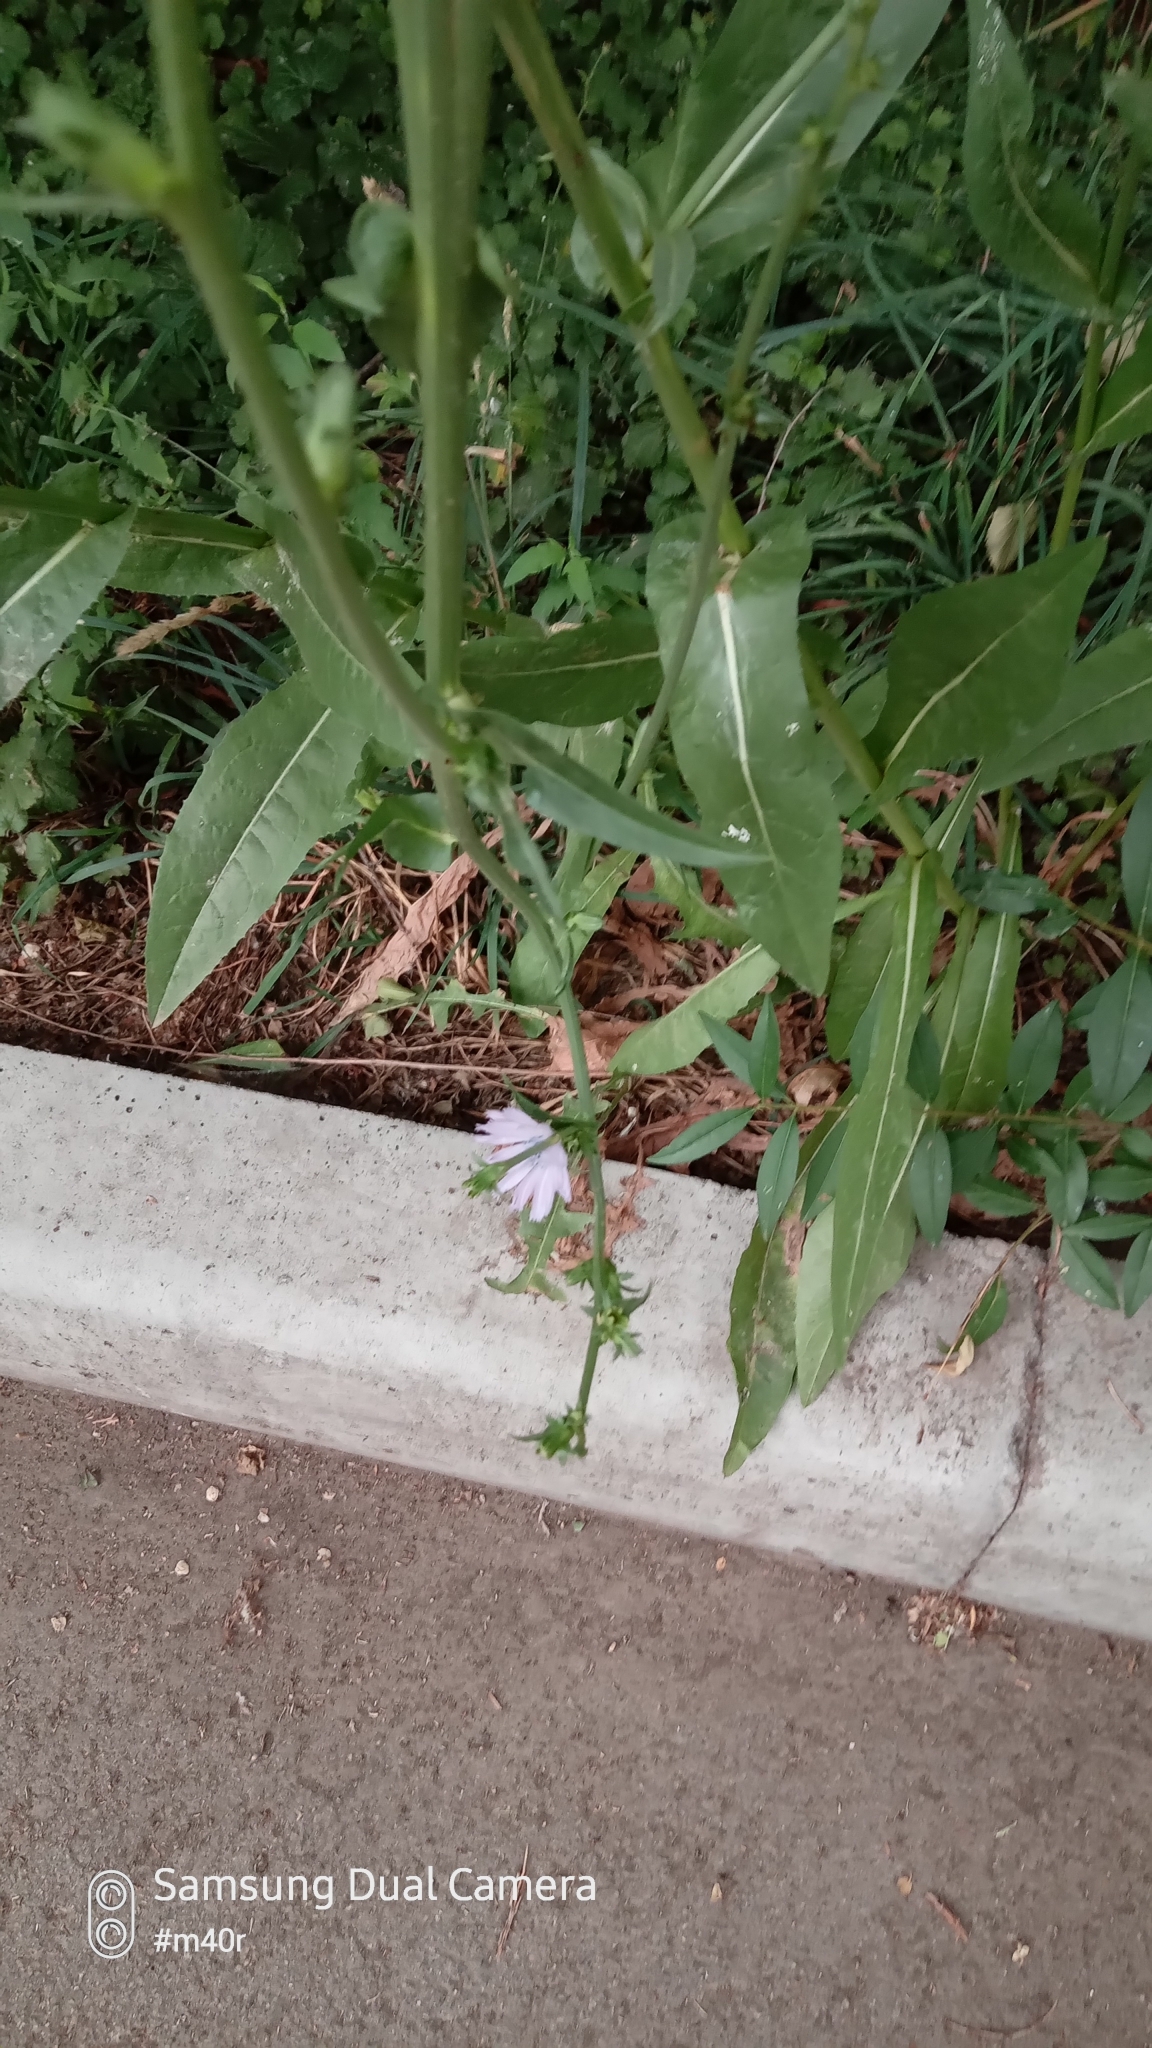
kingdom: Plantae
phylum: Tracheophyta
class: Magnoliopsida
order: Asterales
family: Asteraceae
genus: Cichorium
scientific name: Cichorium intybus
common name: Chicory
